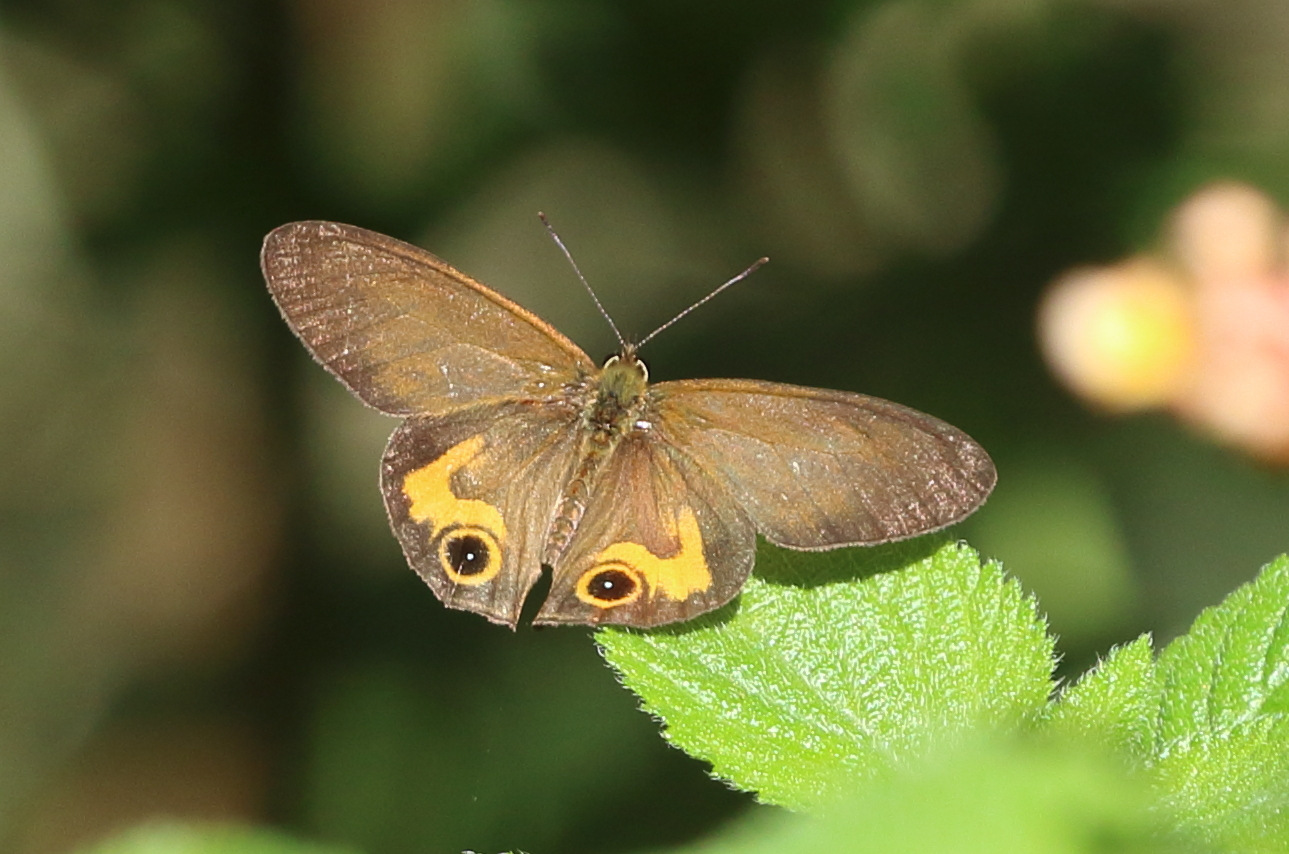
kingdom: Animalia
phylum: Arthropoda
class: Insecta
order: Lepidoptera
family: Nymphalidae
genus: Hypocysta
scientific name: Hypocysta metirius
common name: Brown ringlet
